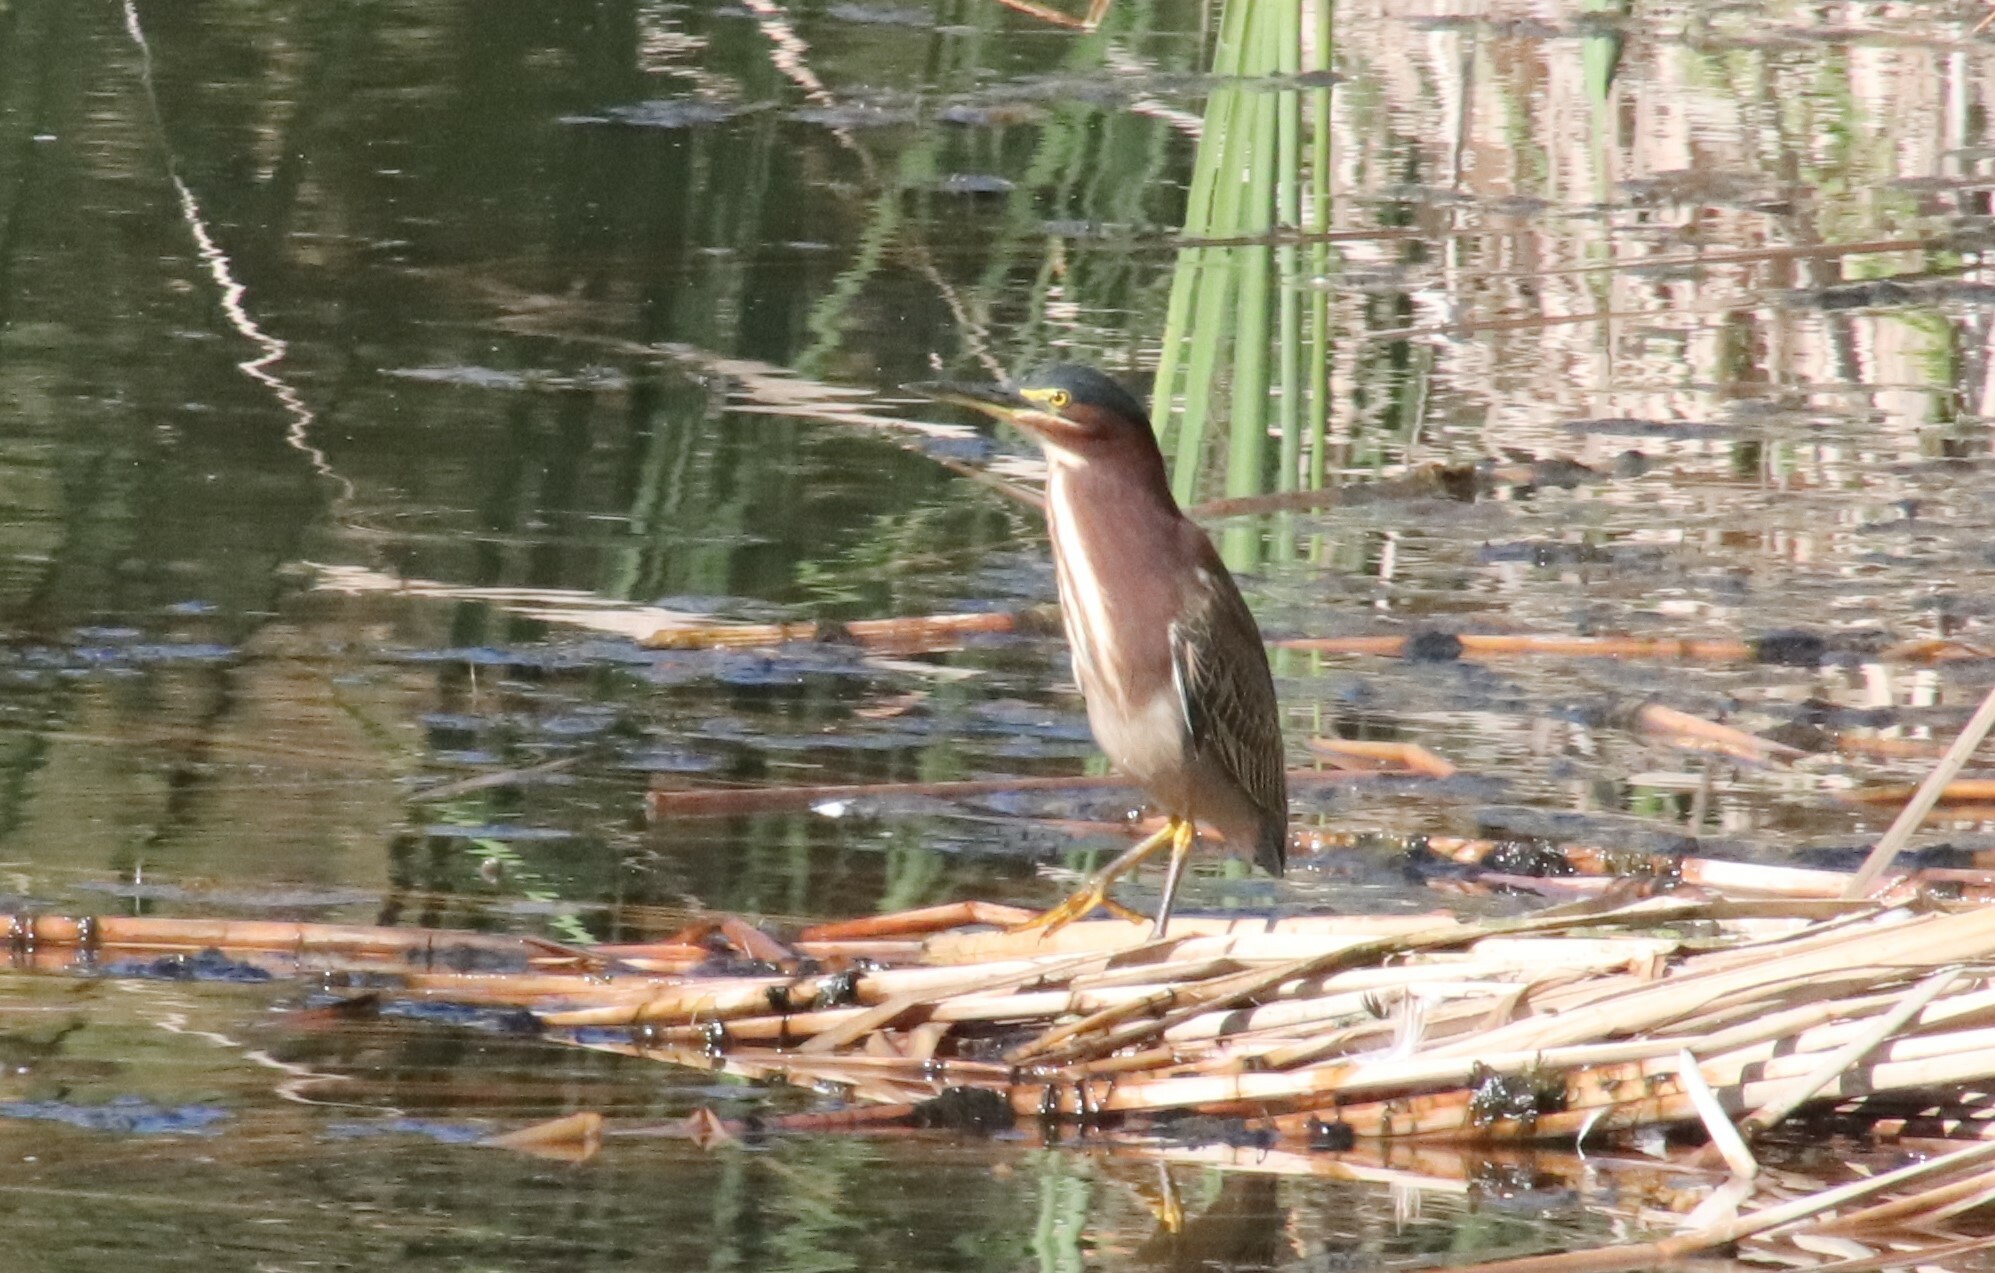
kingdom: Animalia
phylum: Chordata
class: Aves
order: Pelecaniformes
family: Ardeidae
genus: Butorides
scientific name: Butorides virescens
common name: Green heron
